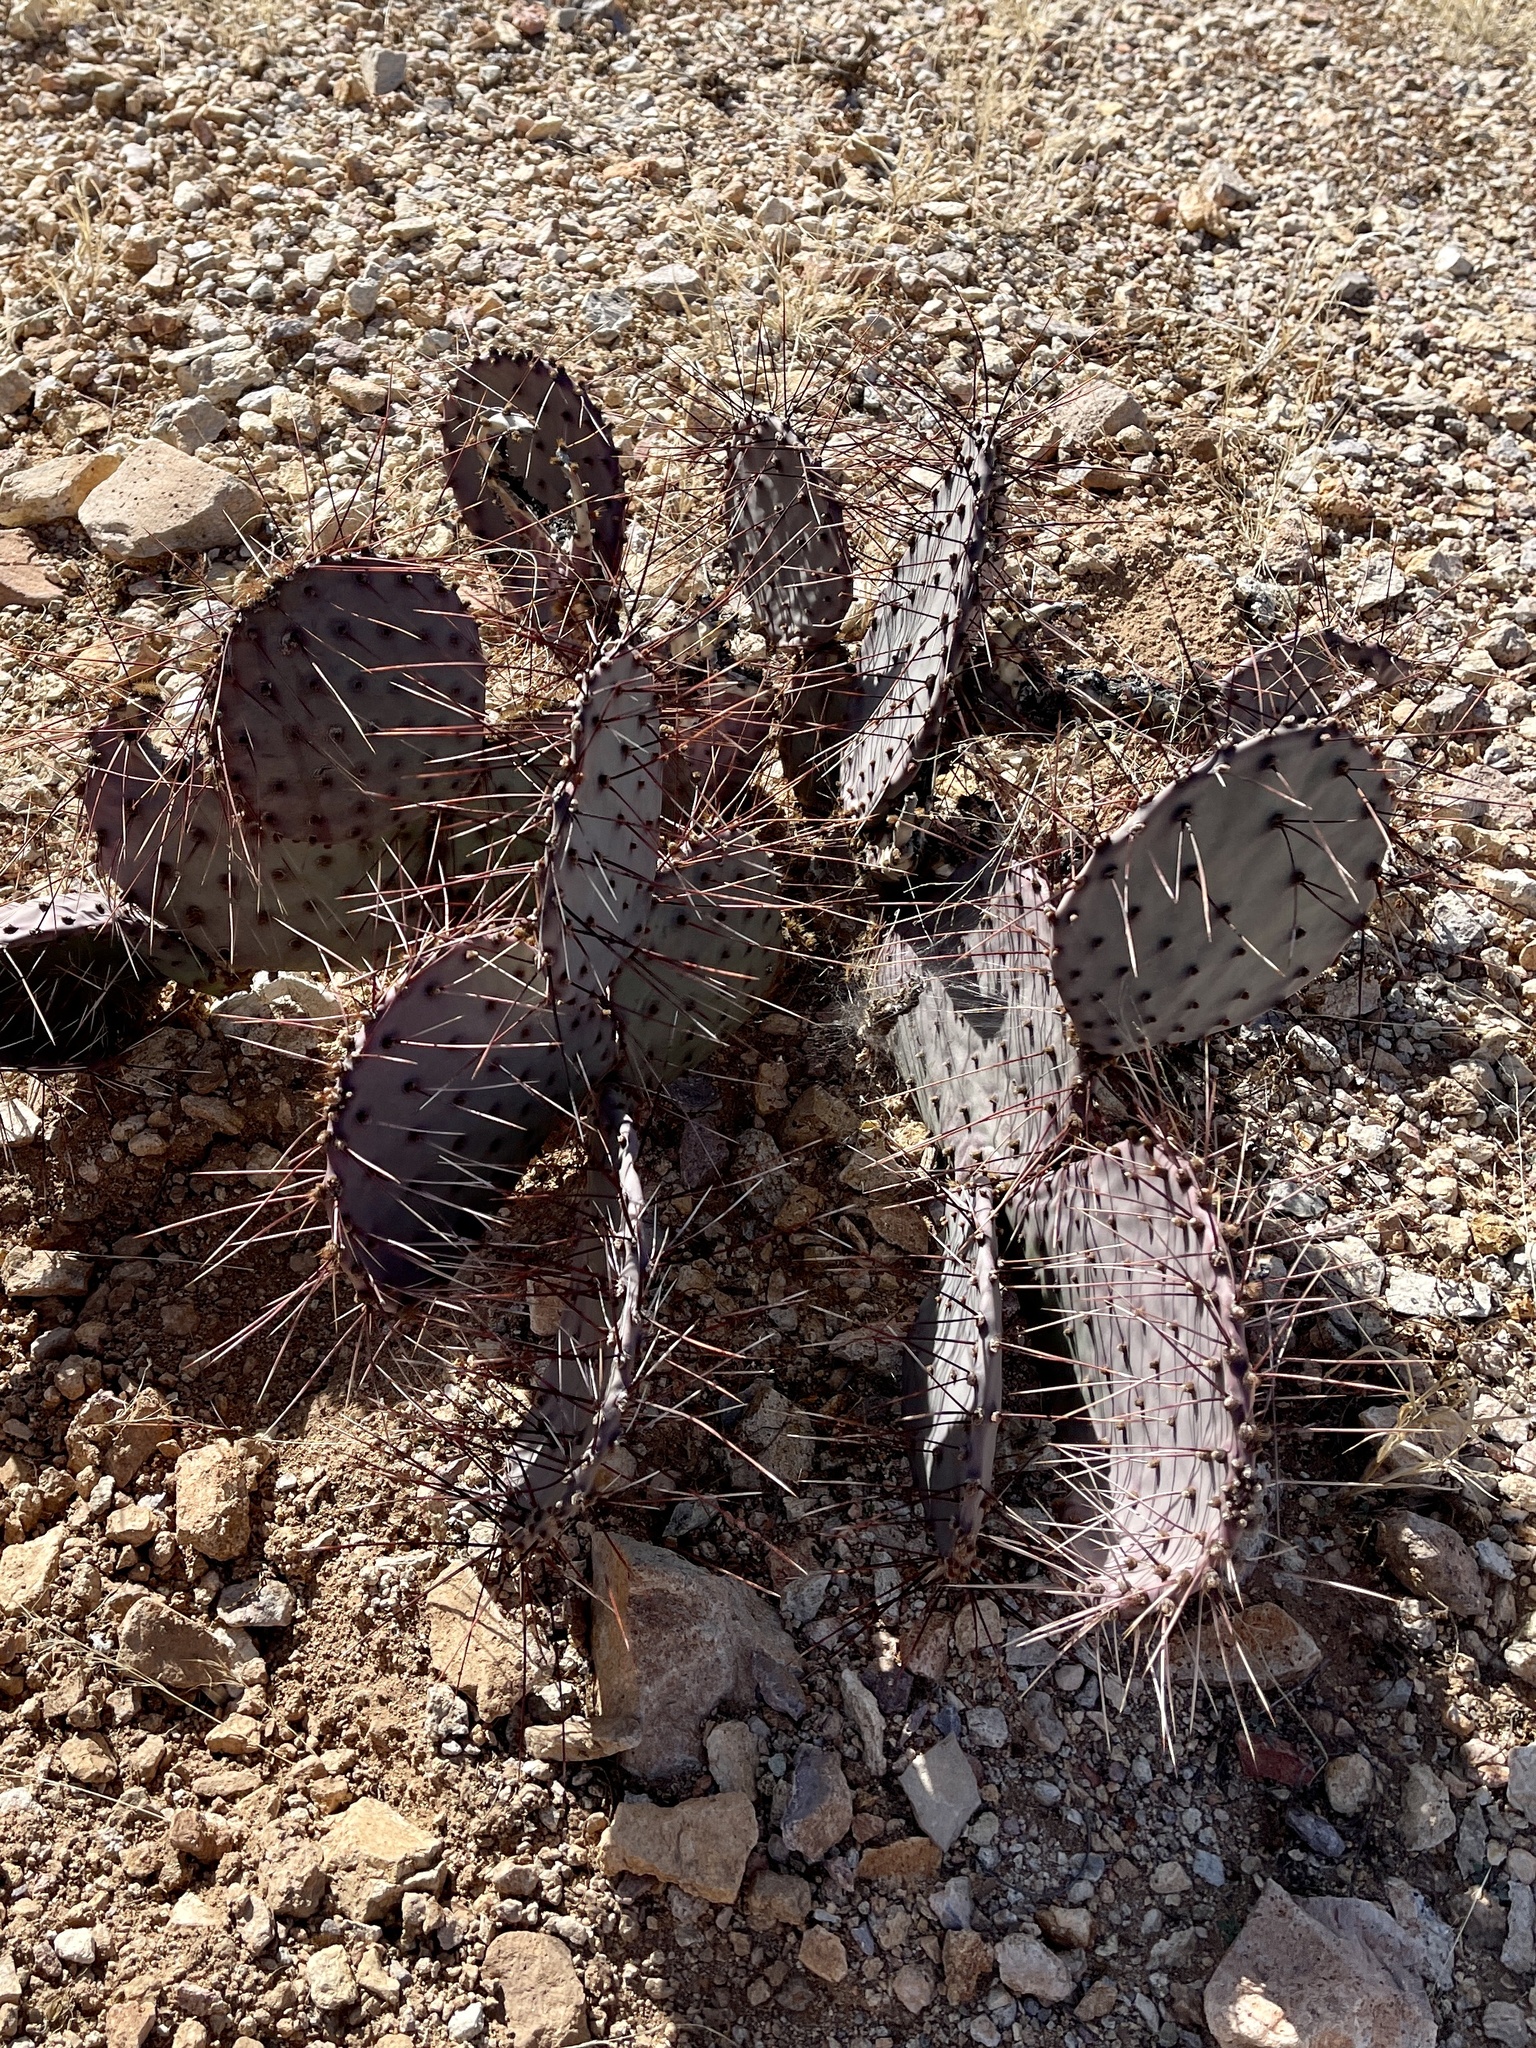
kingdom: Plantae
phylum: Tracheophyta
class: Magnoliopsida
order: Caryophyllales
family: Cactaceae
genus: Opuntia
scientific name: Opuntia macrocentra
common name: Purple prickly-pear
